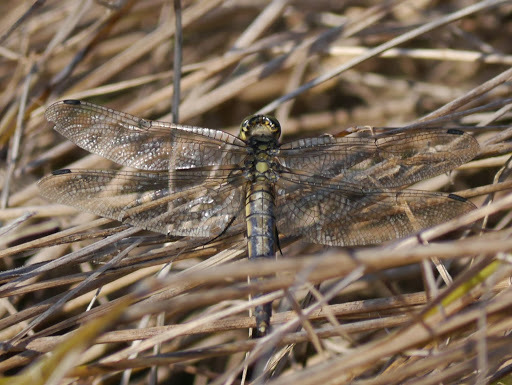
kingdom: Animalia
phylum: Arthropoda
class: Insecta
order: Odonata
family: Libellulidae
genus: Orthetrum
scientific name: Orthetrum cancellatum
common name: Black-tailed skimmer
